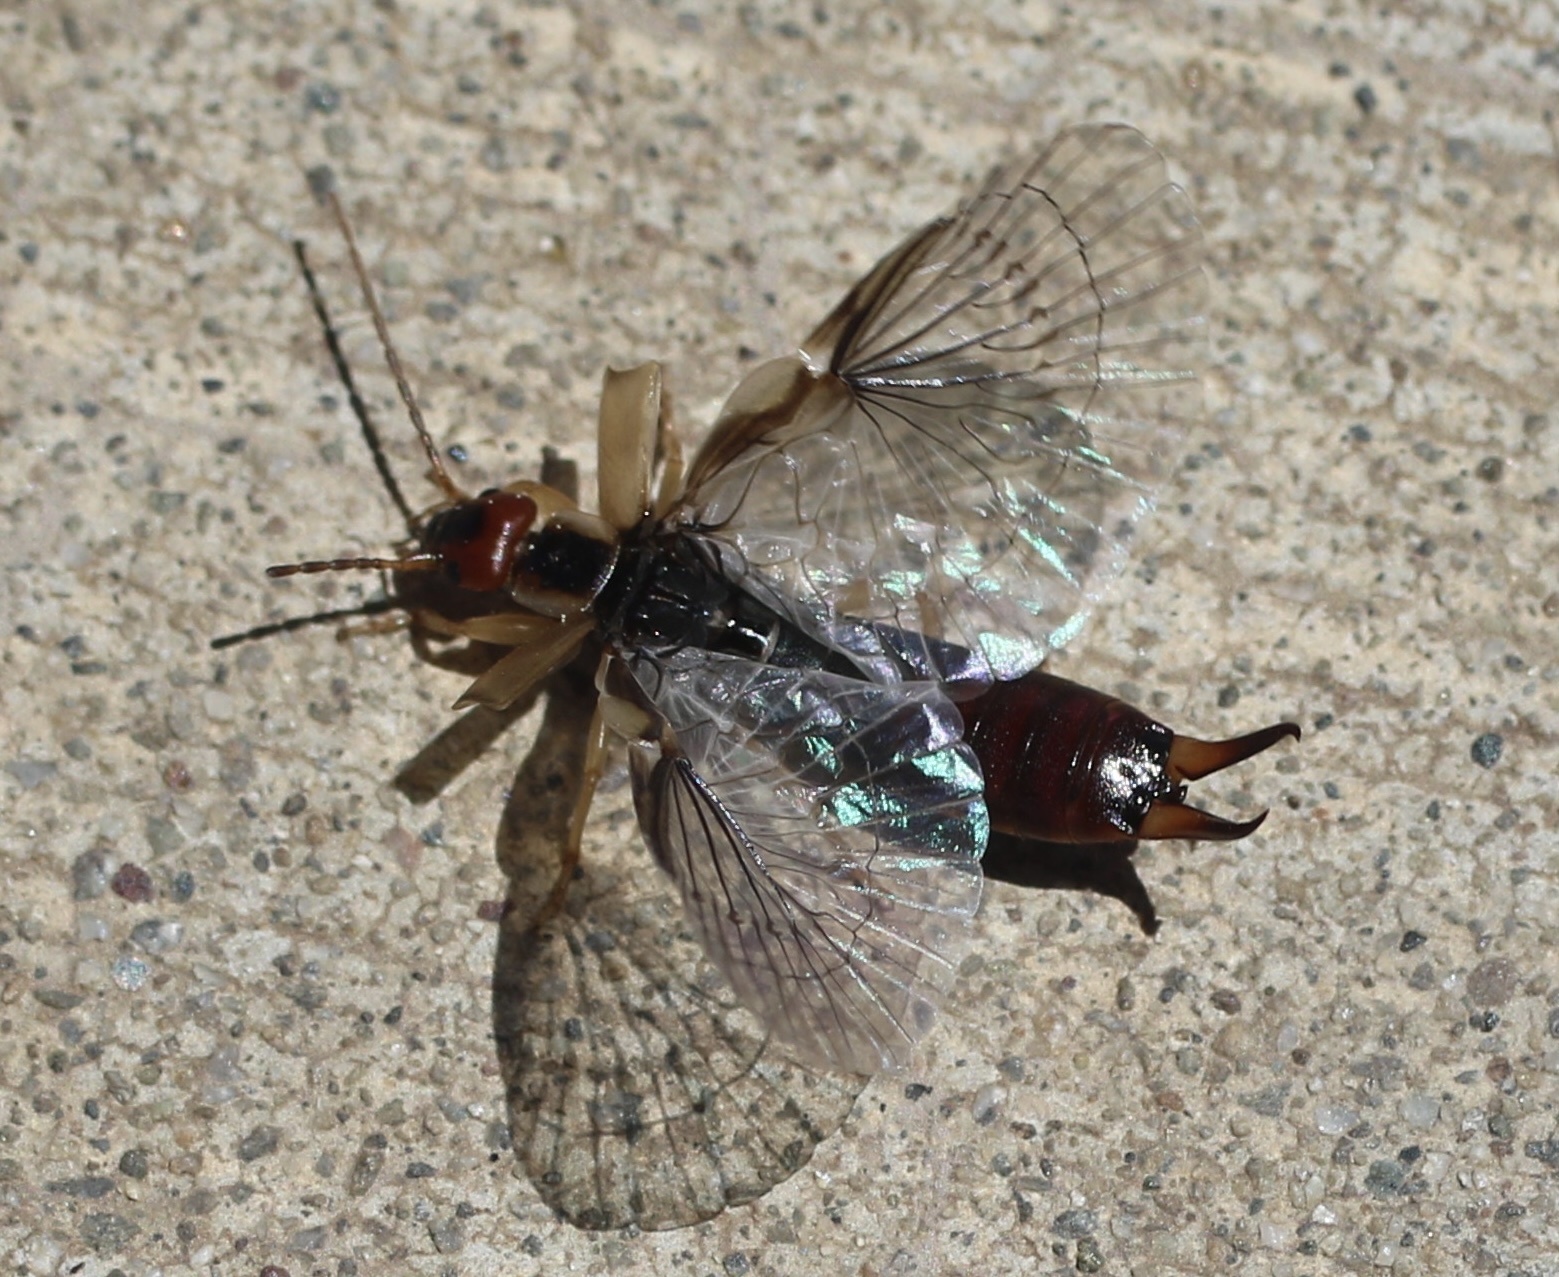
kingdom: Animalia
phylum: Arthropoda
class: Insecta
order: Dermaptera
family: Forficulidae
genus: Forficula
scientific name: Forficula
